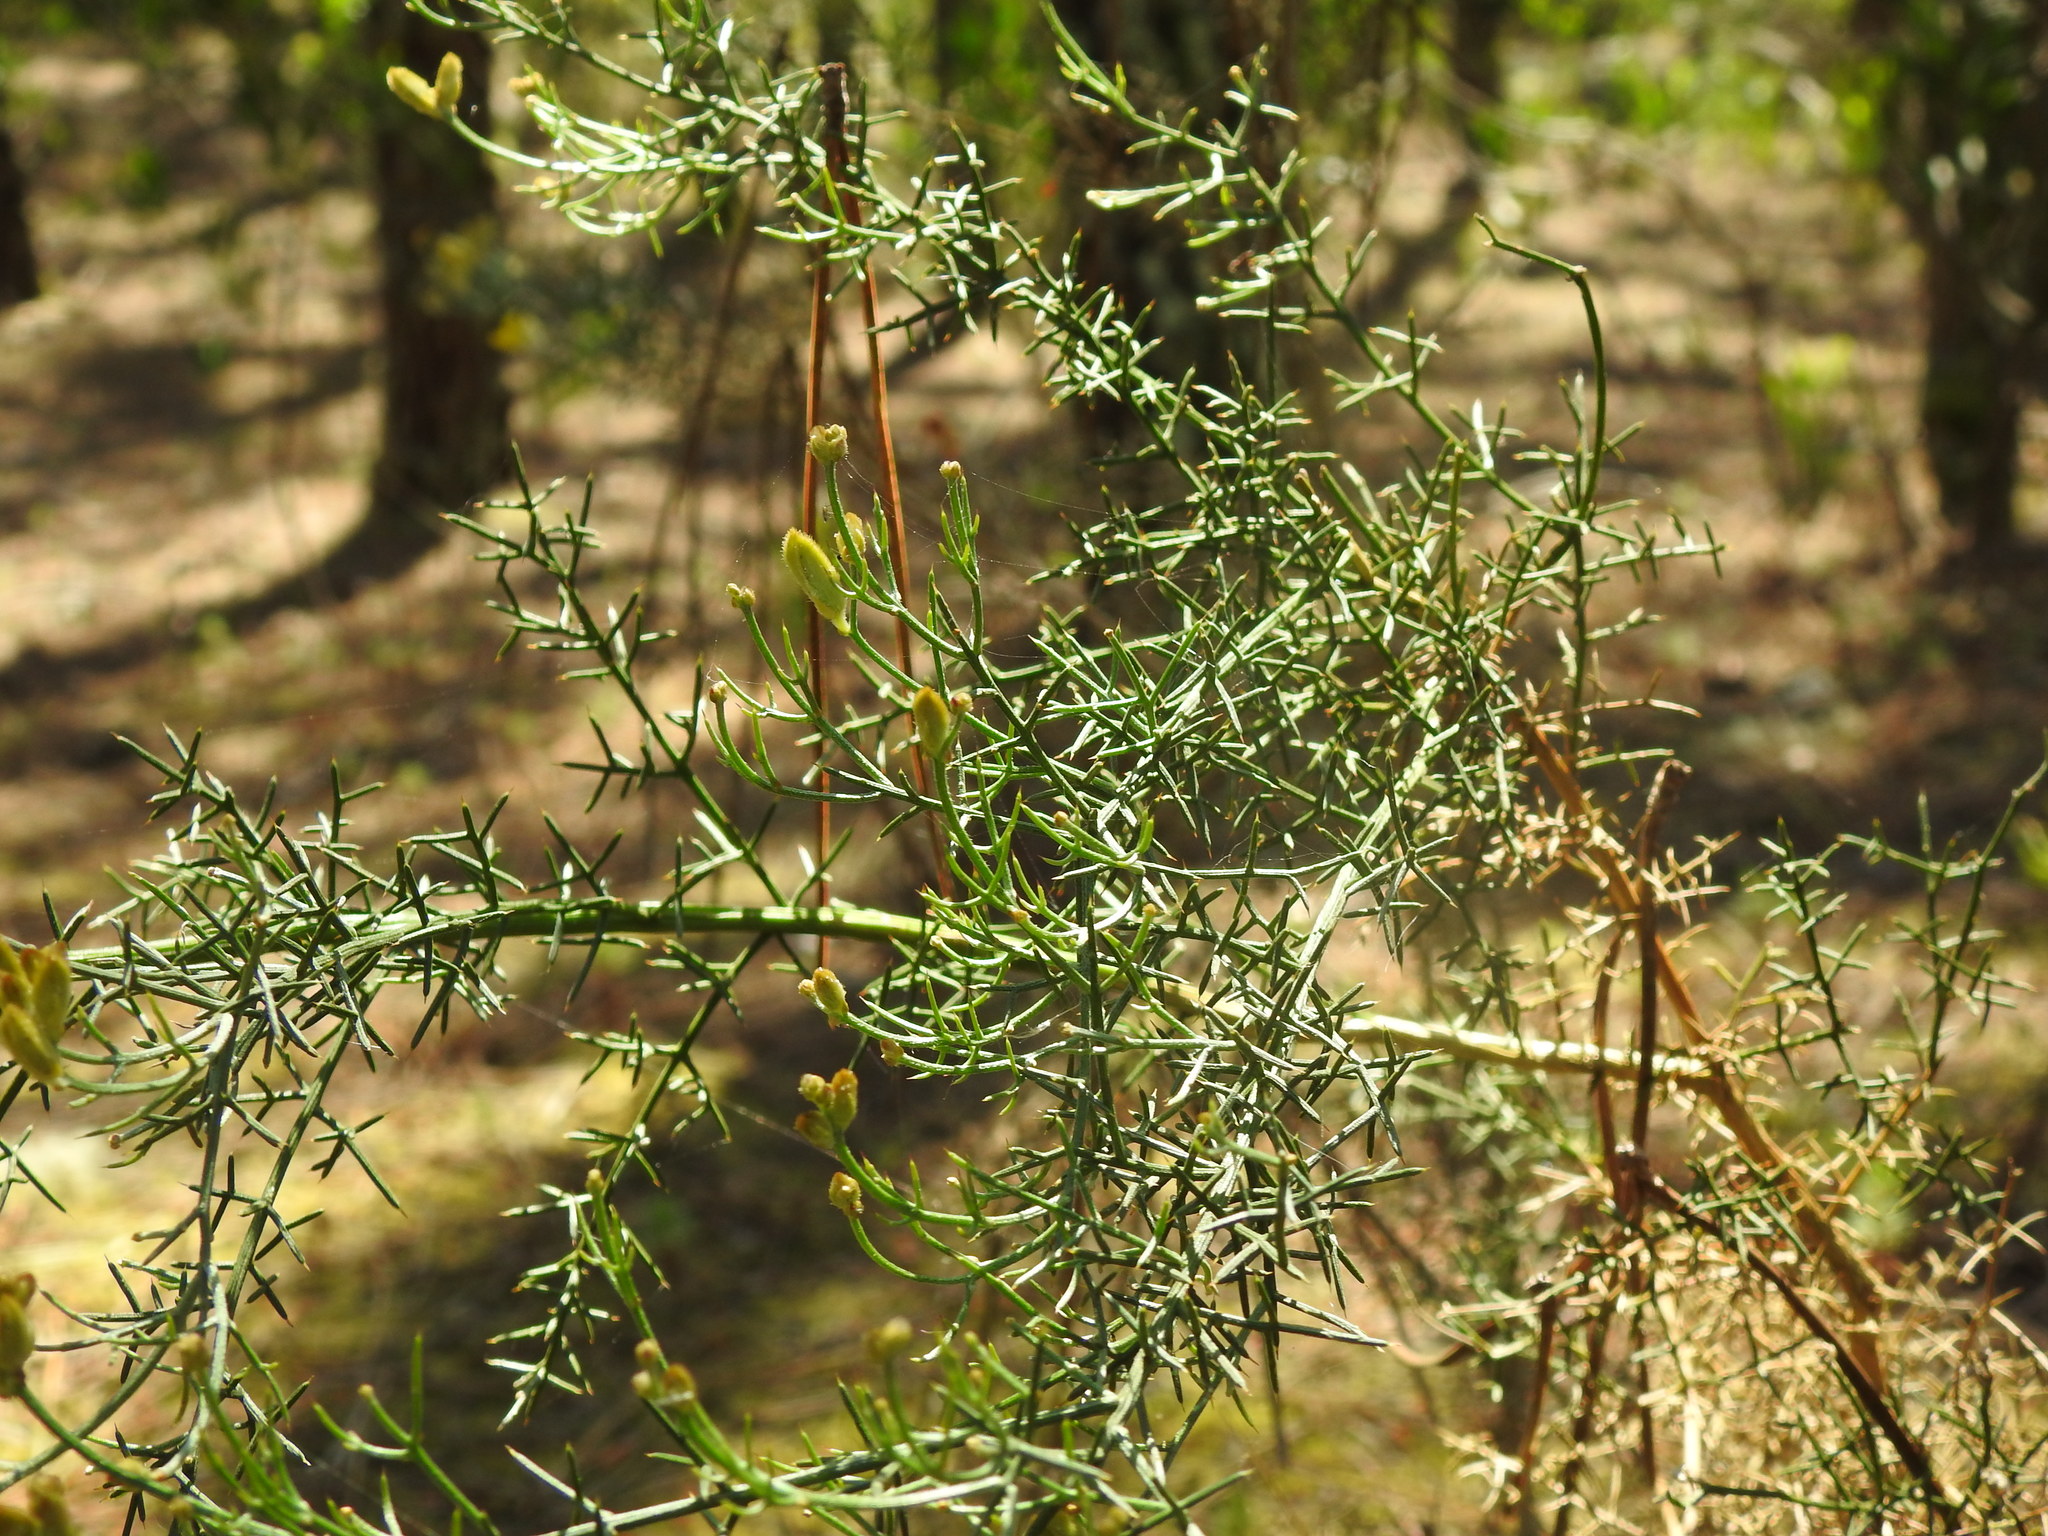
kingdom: Plantae
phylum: Tracheophyta
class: Magnoliopsida
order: Fabales
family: Fabaceae
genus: Stauracanthus
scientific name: Stauracanthus genistoides
